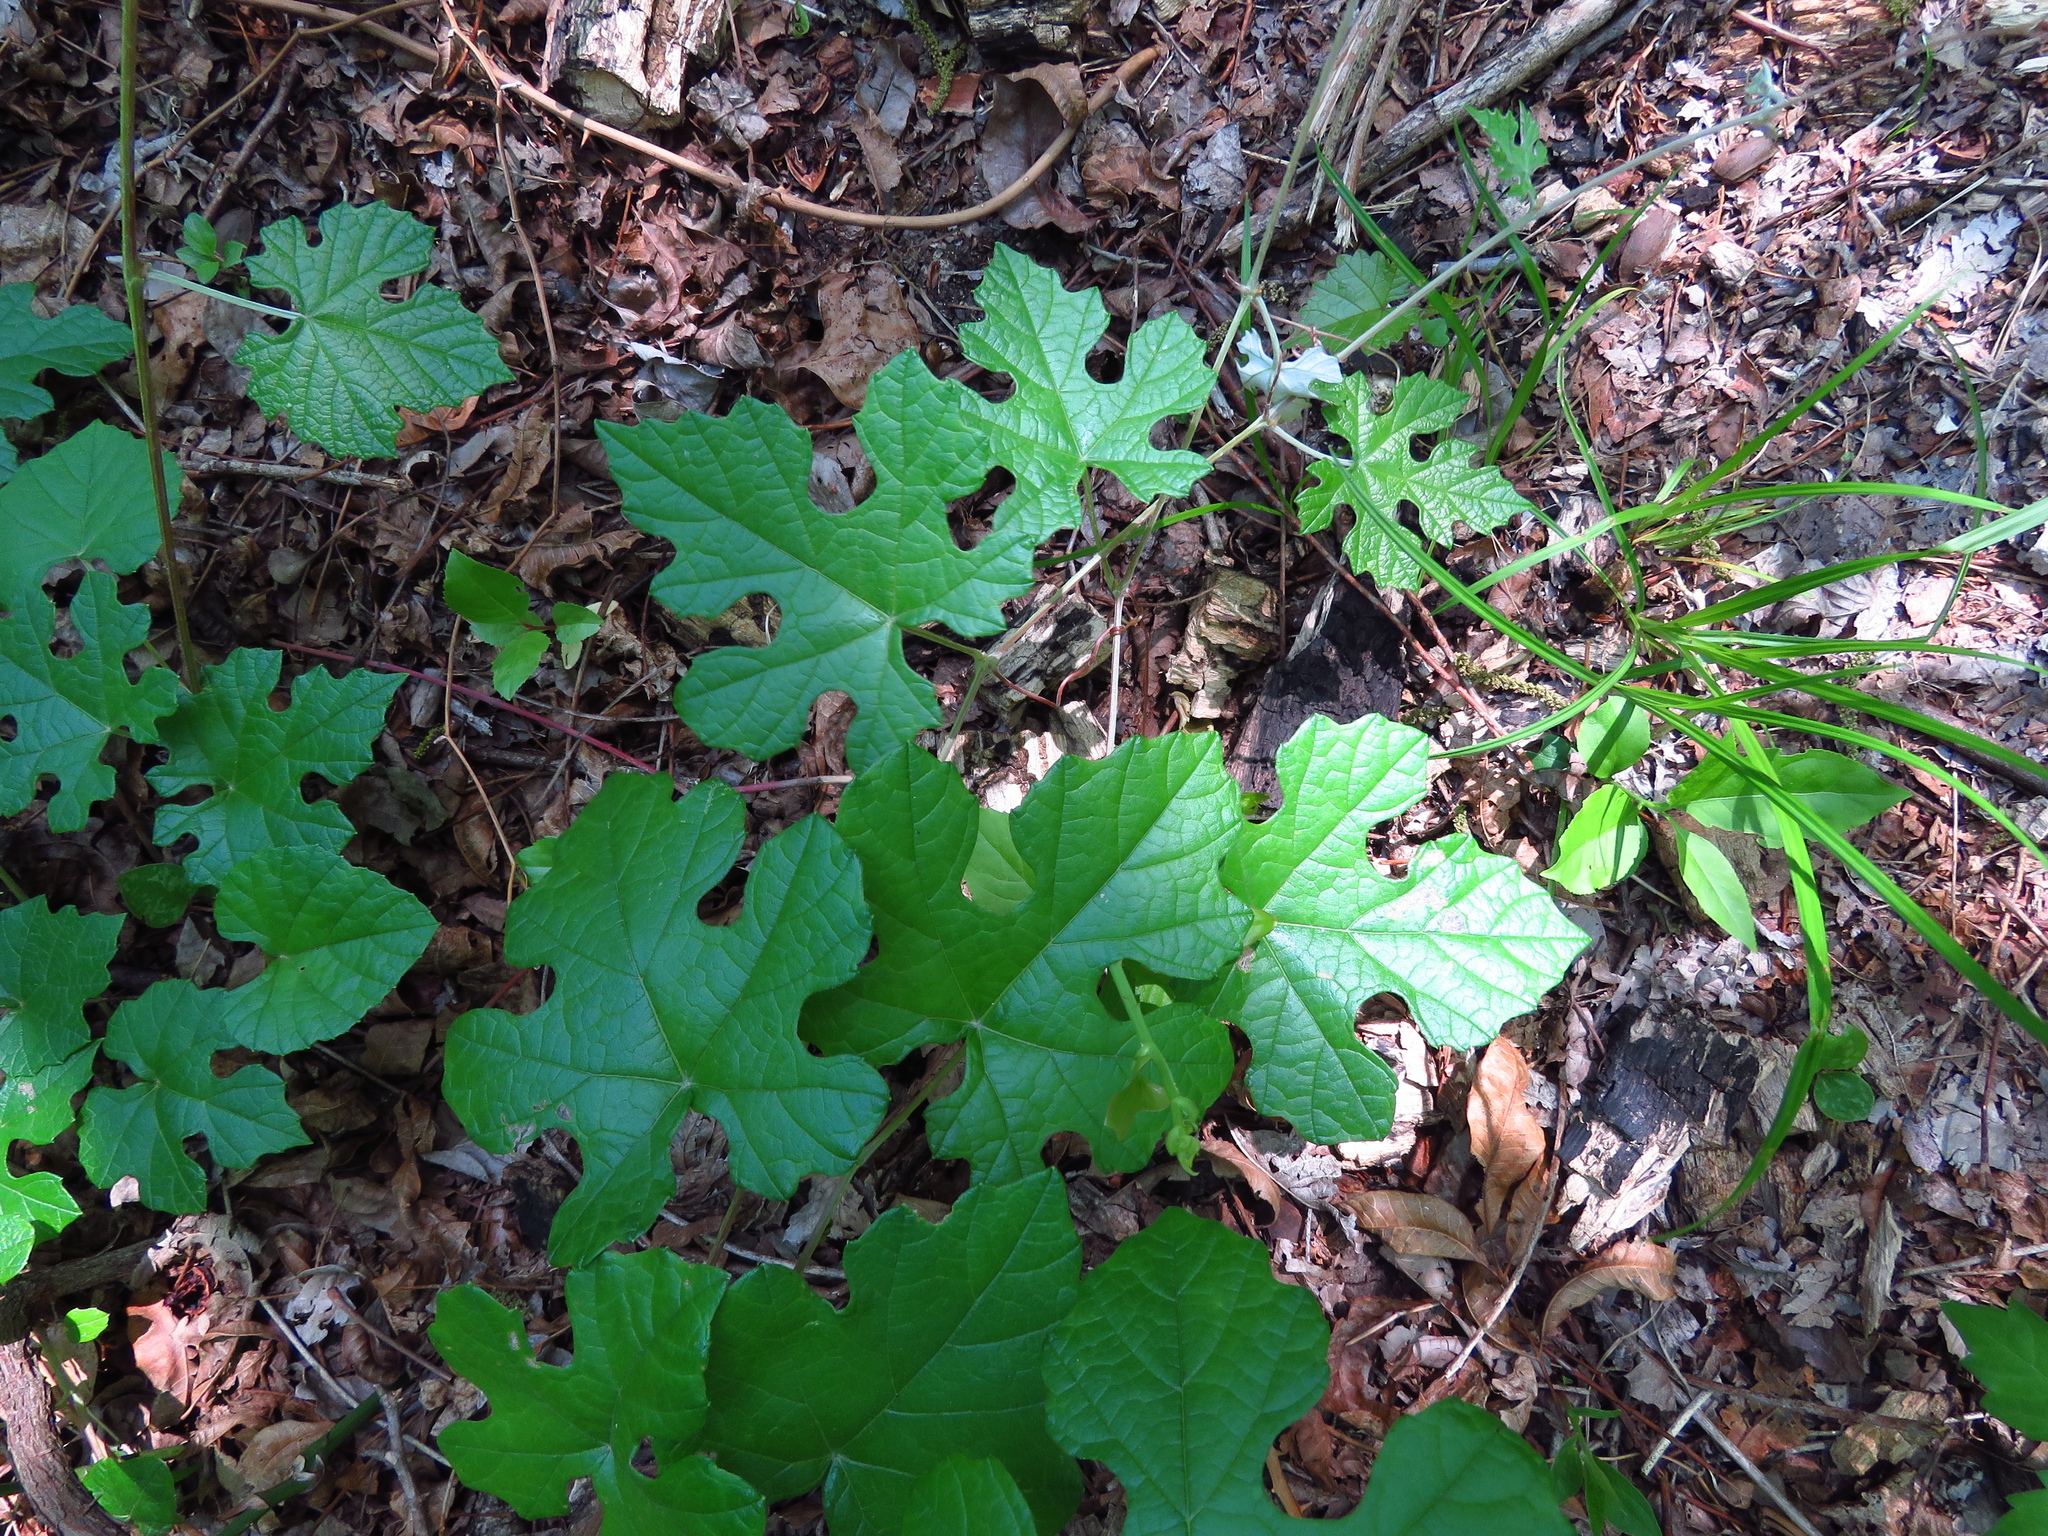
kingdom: Plantae
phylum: Tracheophyta
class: Magnoliopsida
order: Vitales
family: Vitaceae
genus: Vitis
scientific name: Vitis mustangensis
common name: Mustang grape
